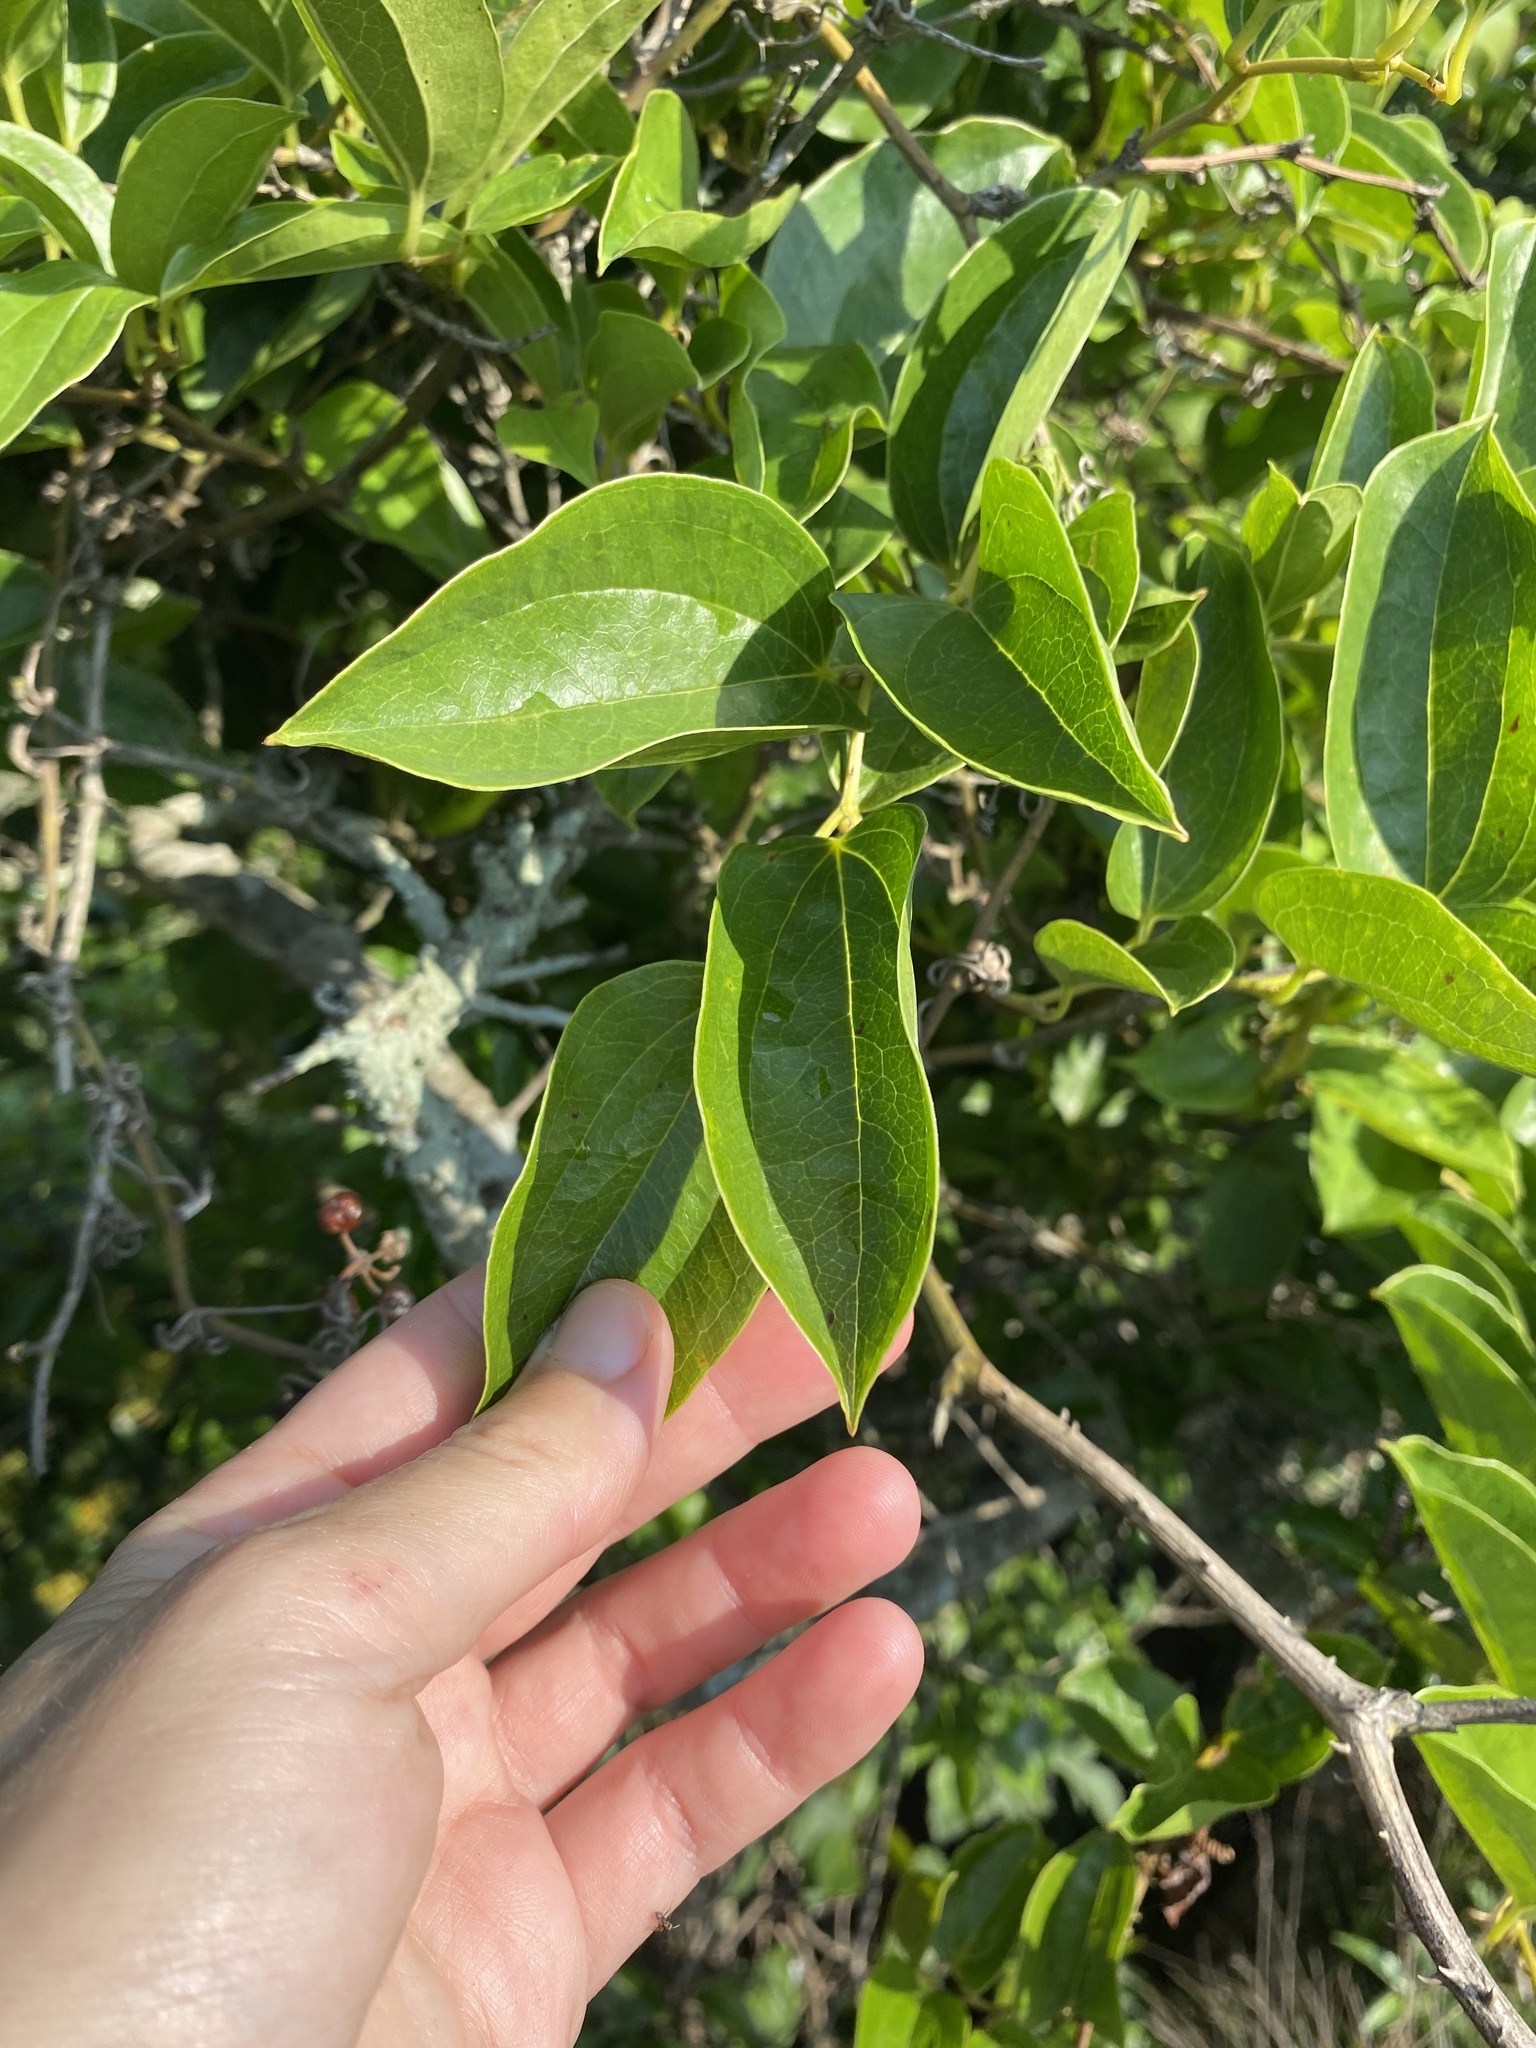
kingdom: Plantae
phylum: Tracheophyta
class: Liliopsida
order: Liliales
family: Smilacaceae
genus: Smilax
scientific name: Smilax anceps
